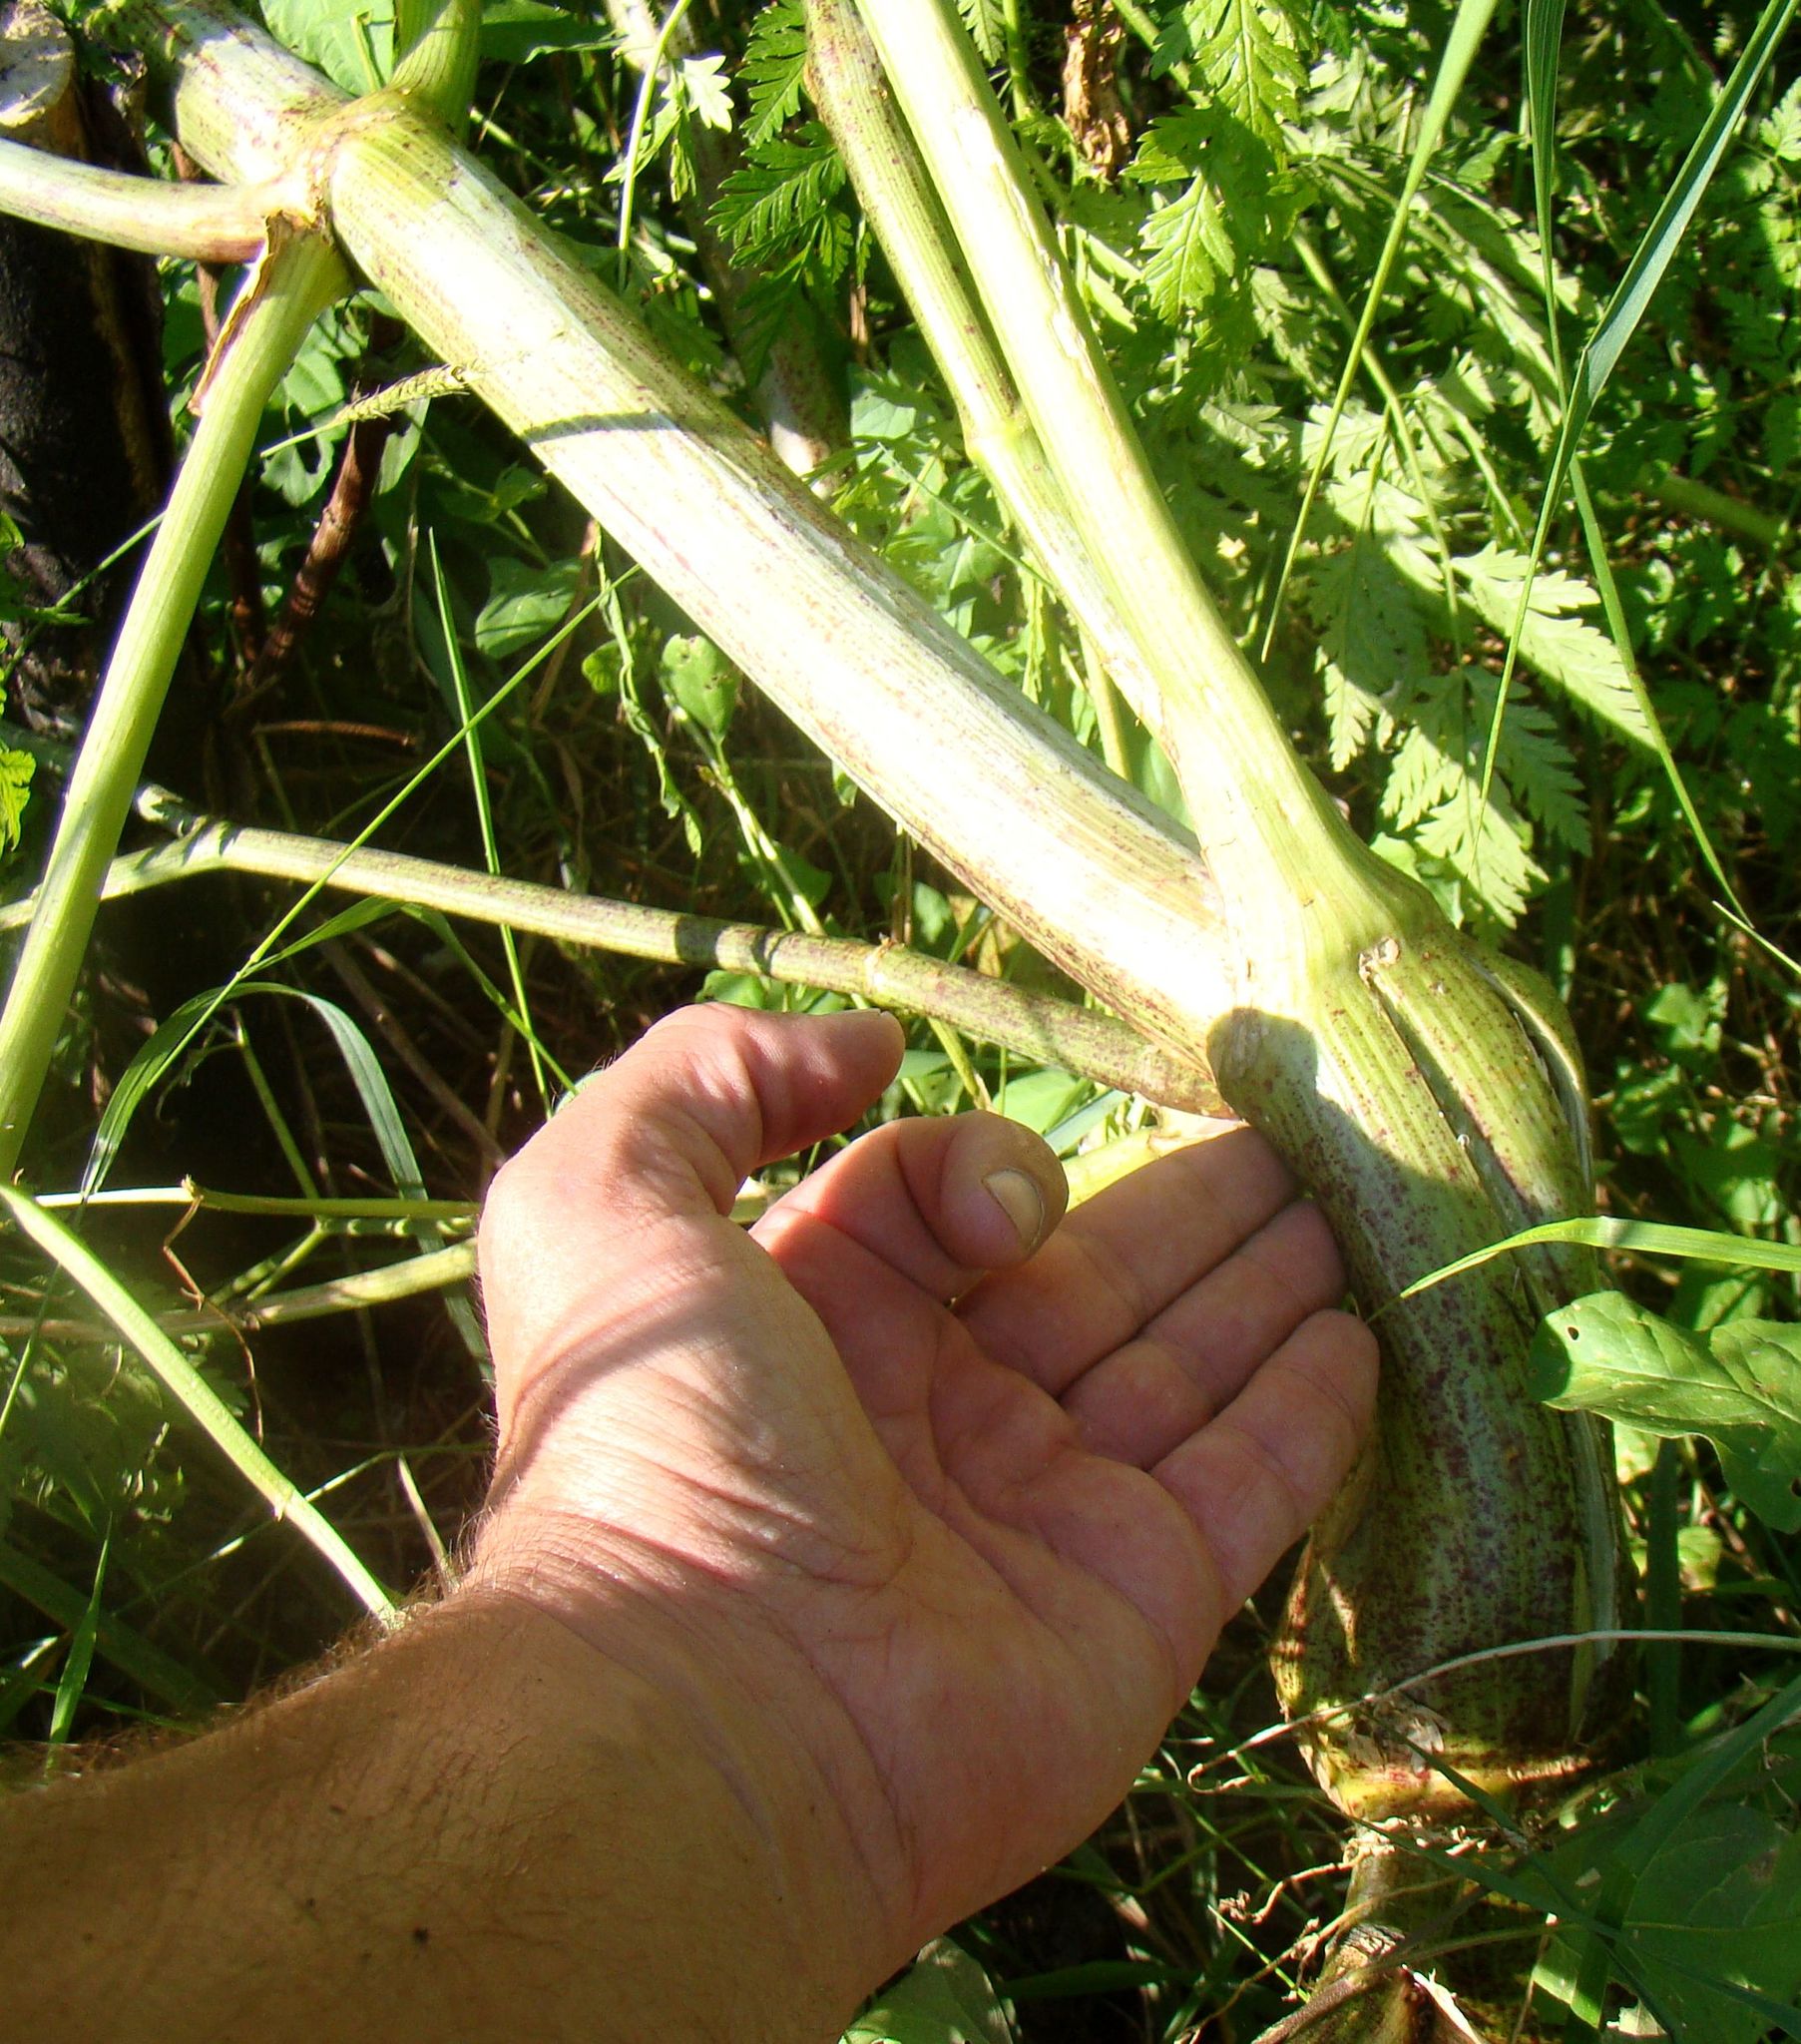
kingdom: Plantae
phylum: Tracheophyta
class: Magnoliopsida
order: Apiales
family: Apiaceae
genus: Conium
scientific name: Conium maculatum
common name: Hemlock
